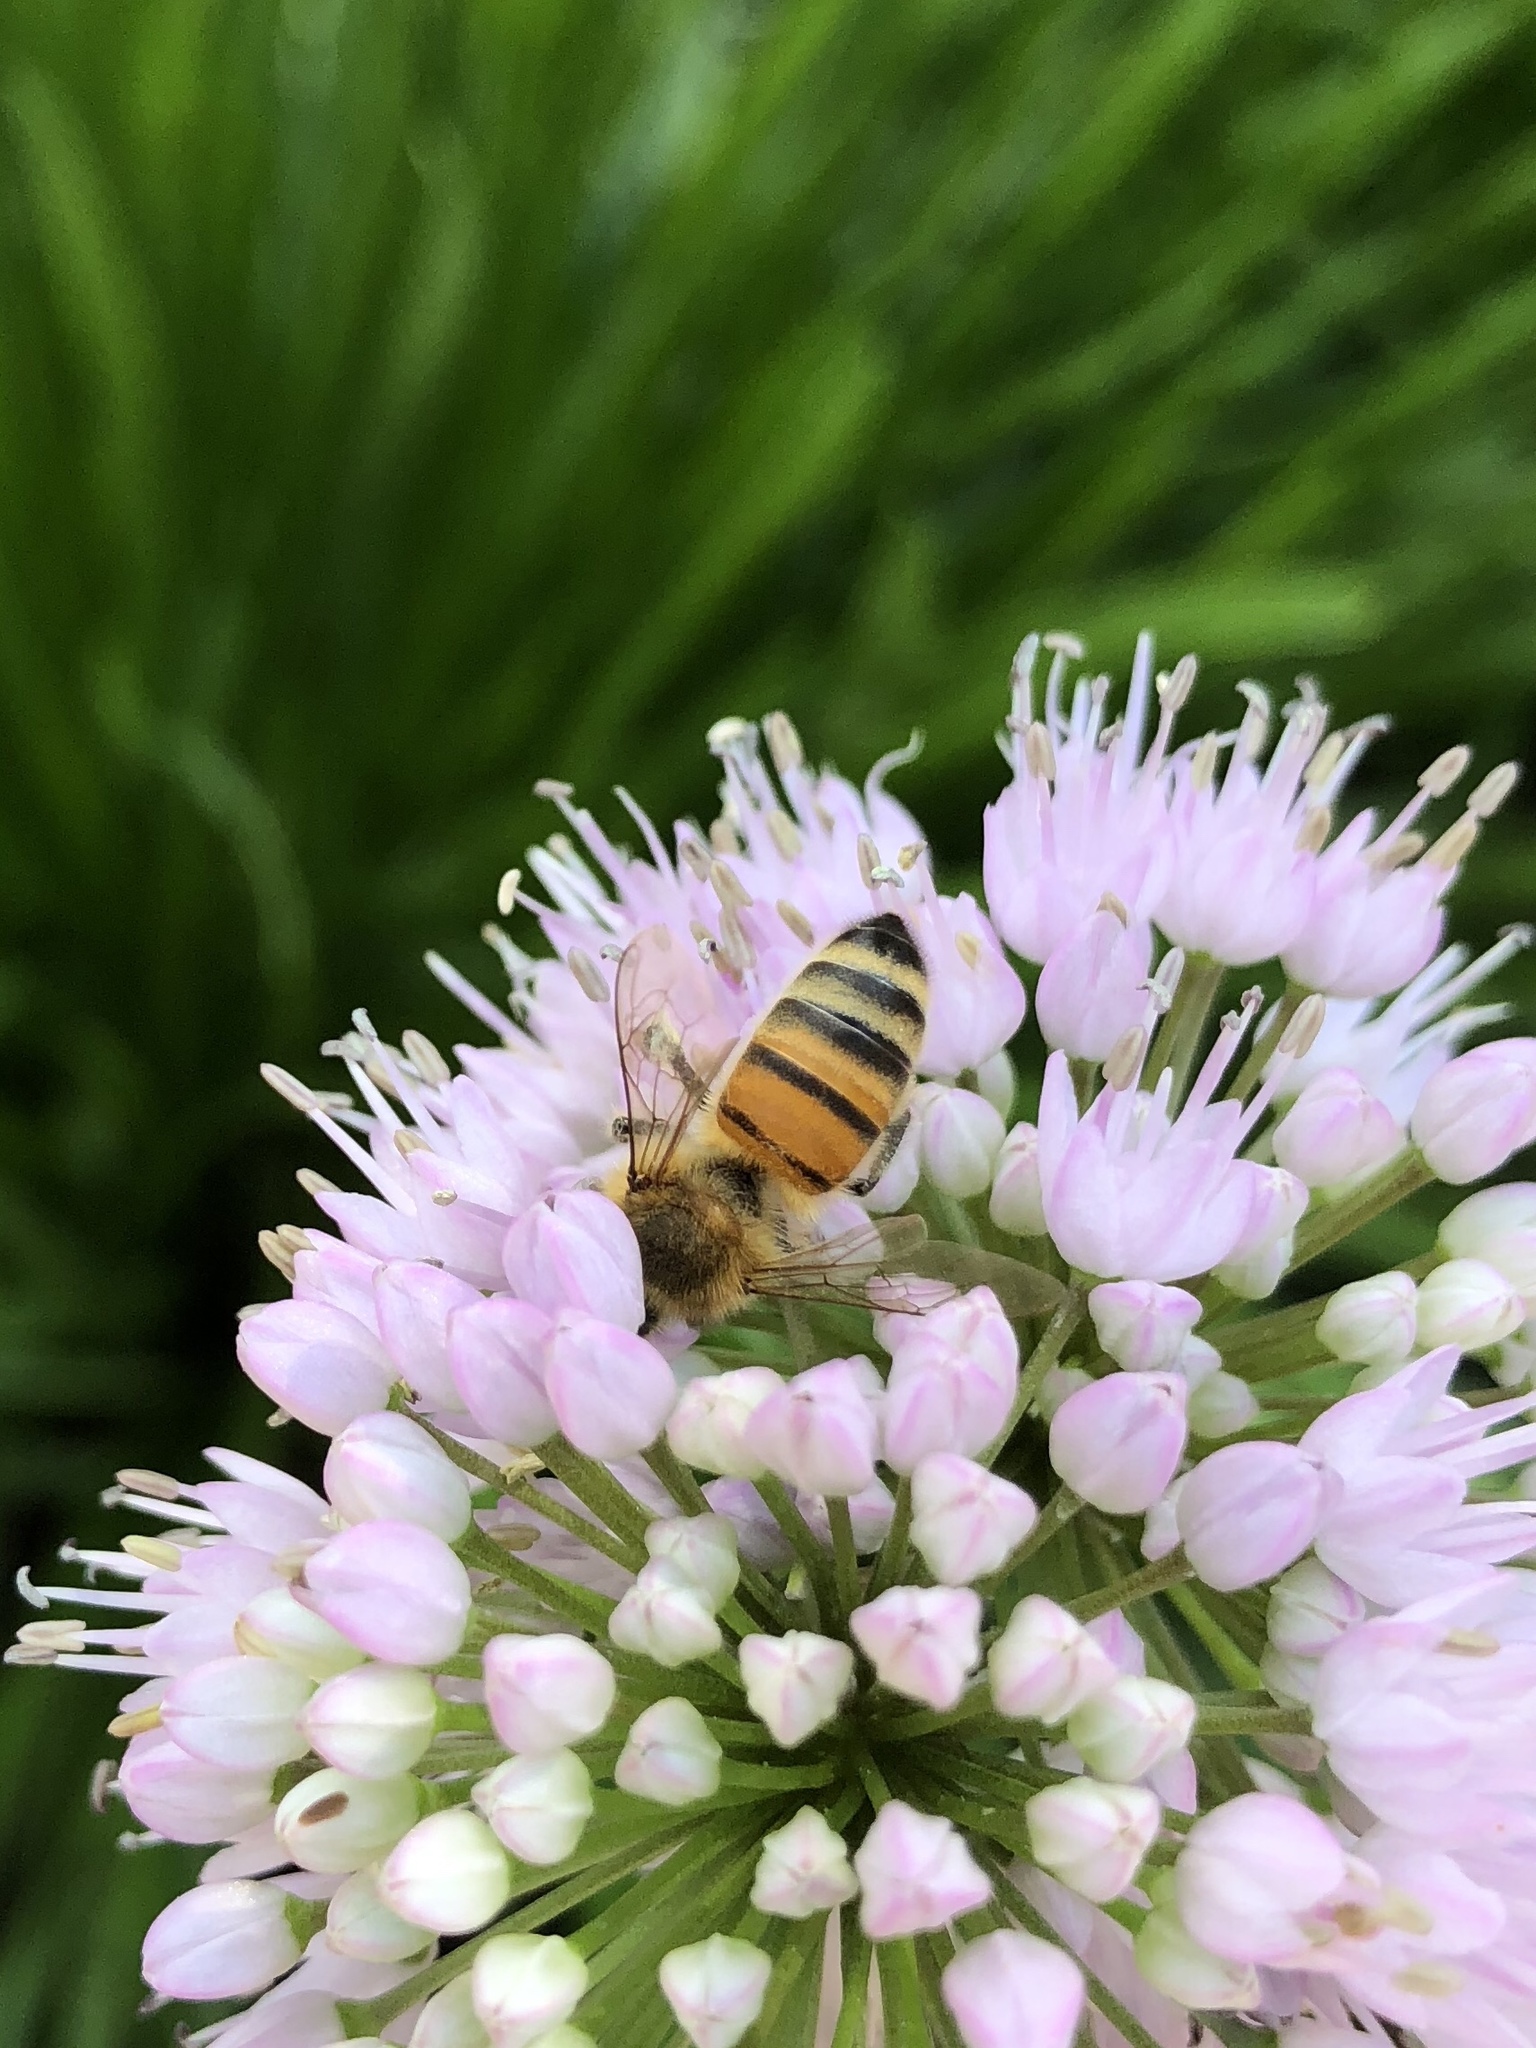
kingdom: Animalia
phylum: Arthropoda
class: Insecta
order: Hymenoptera
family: Apidae
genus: Apis
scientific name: Apis mellifera
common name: Honey bee
